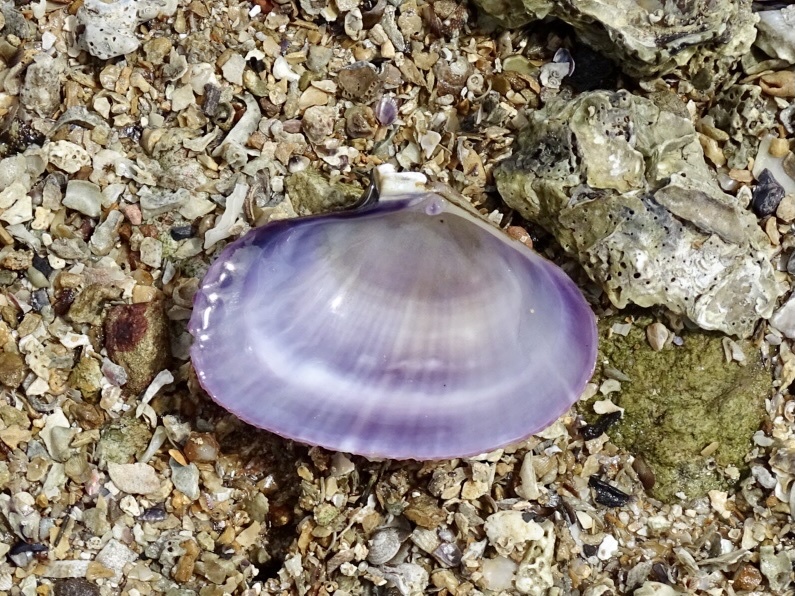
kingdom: Animalia
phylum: Mollusca
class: Bivalvia
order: Cardiida
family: Psammobiidae
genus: Asaphis
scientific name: Asaphis violascens
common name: Pacific asaphis
